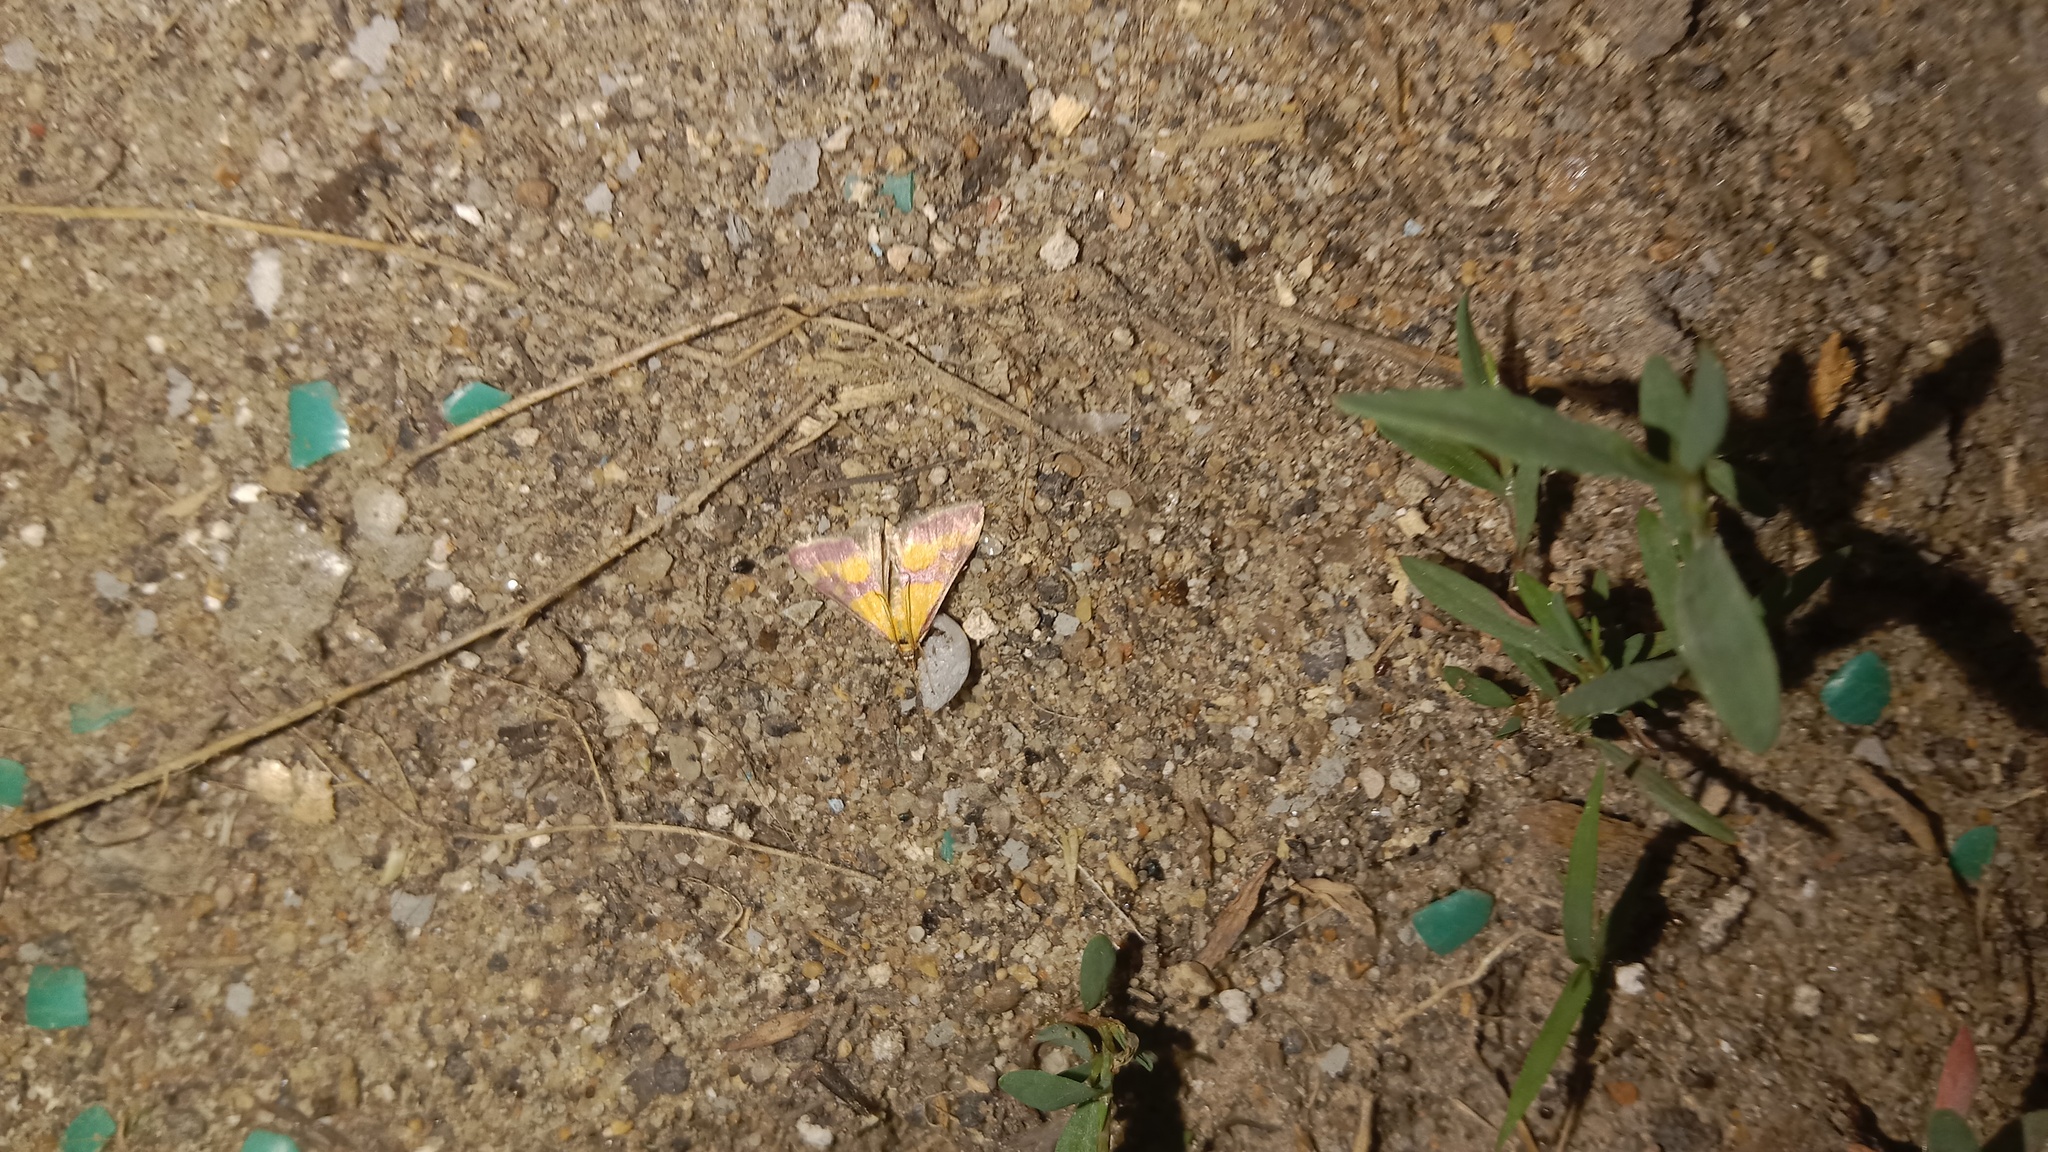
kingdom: Animalia
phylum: Arthropoda
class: Insecta
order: Lepidoptera
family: Crambidae
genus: Pyrausta
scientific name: Pyrausta sanguinalis
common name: Scarce crimson and gold
